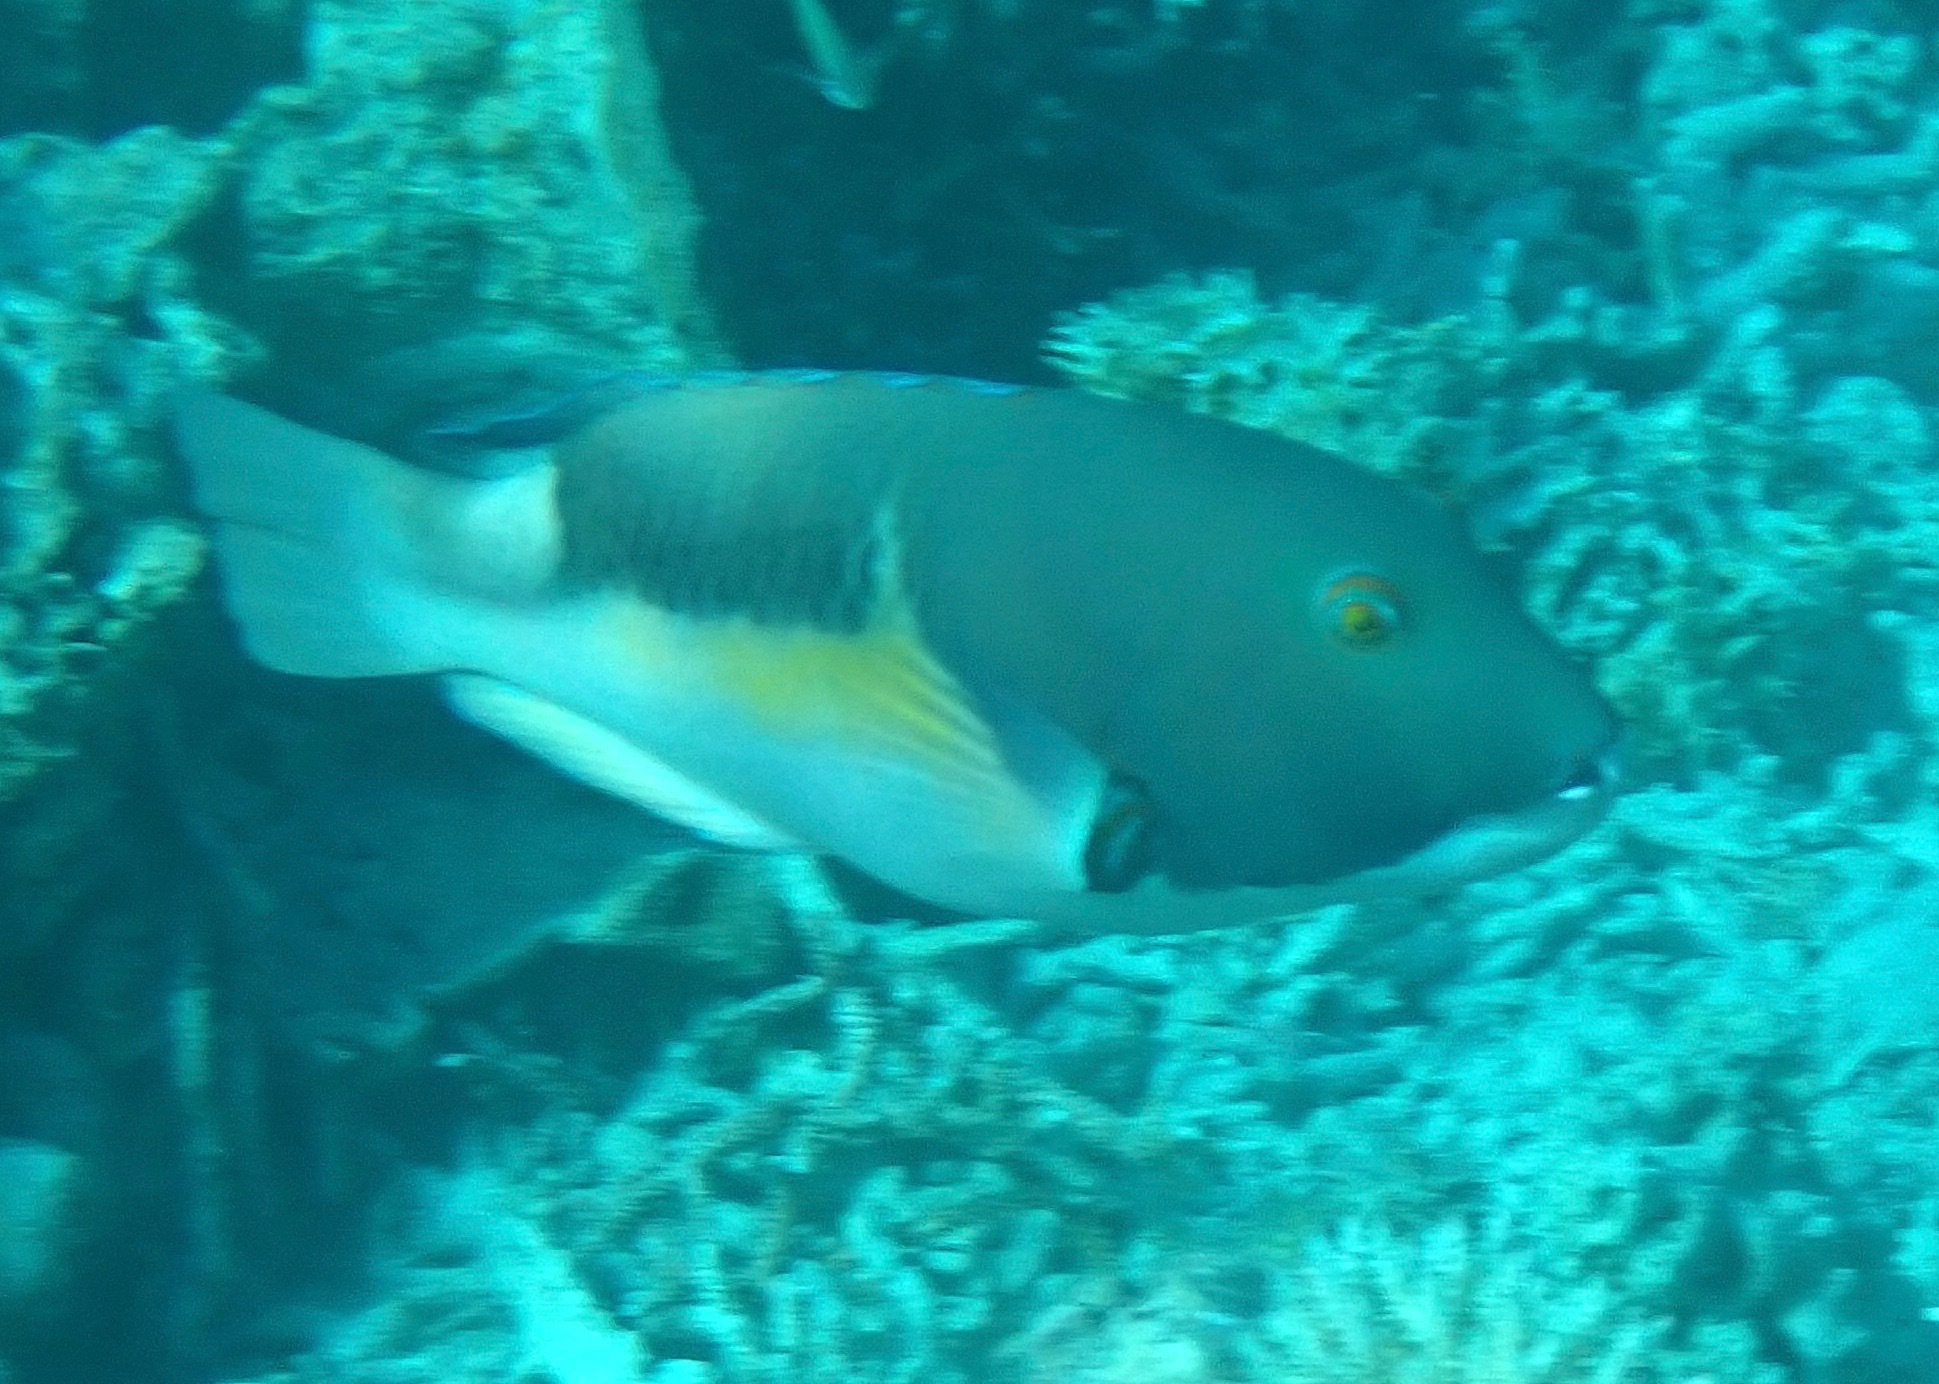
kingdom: Animalia
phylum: Chordata
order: Perciformes
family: Labridae
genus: Choerodon
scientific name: Choerodon anchorago
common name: Anchor tuskfish
